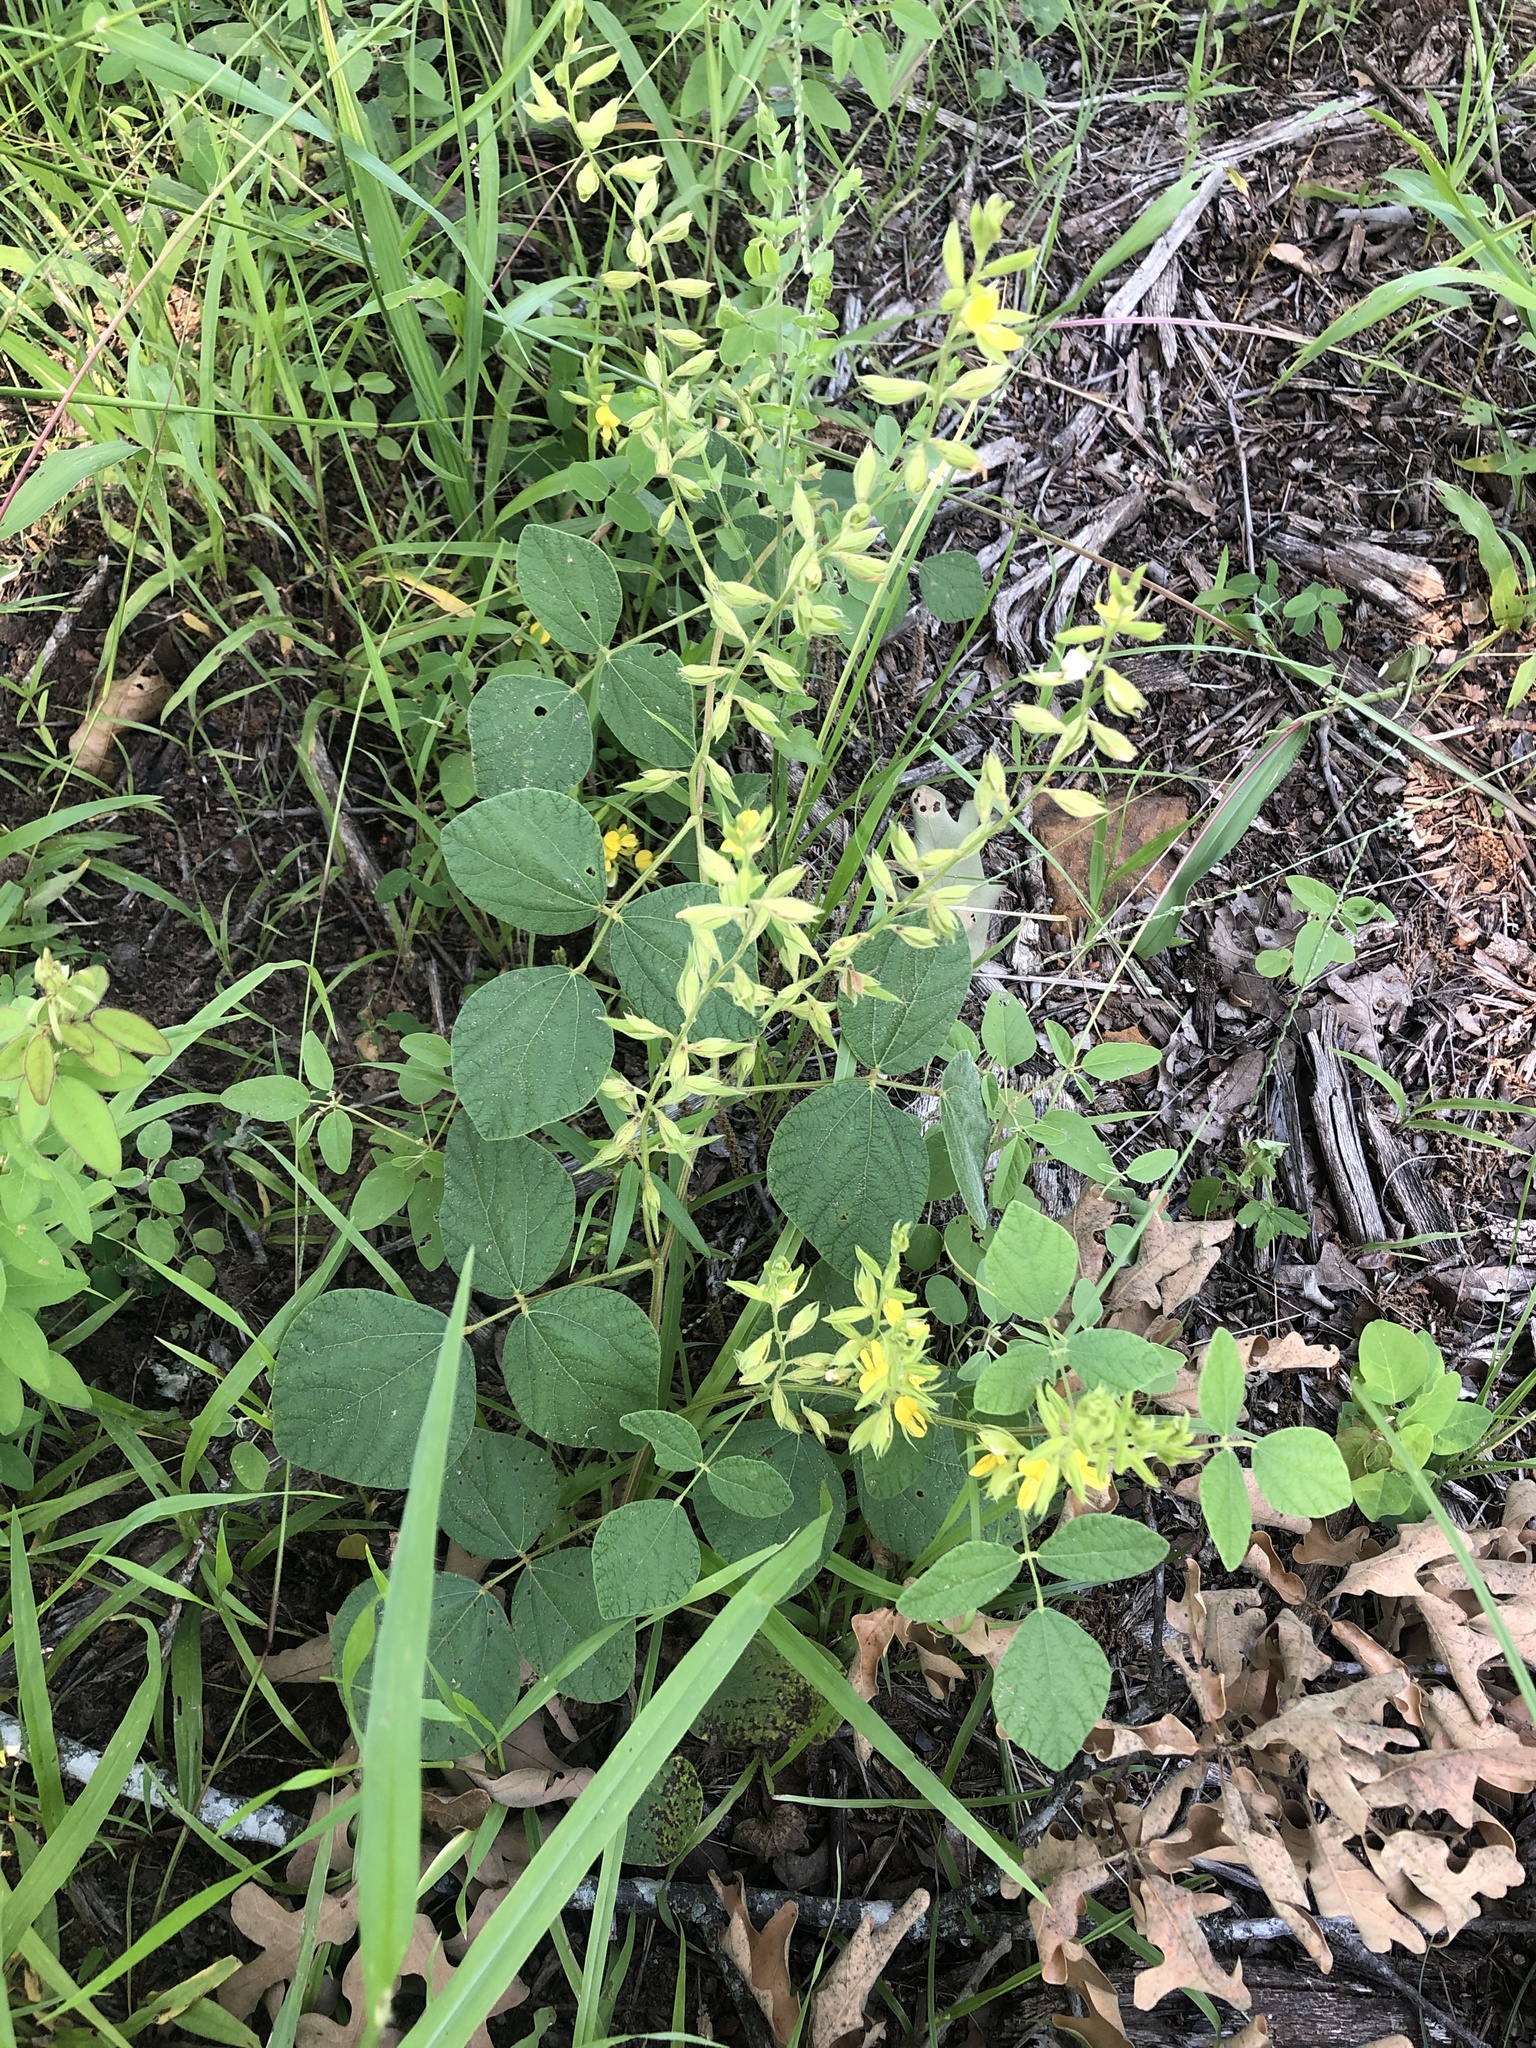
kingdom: Plantae
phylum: Tracheophyta
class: Magnoliopsida
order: Fabales
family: Fabaceae
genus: Rhynchosia
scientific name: Rhynchosia latifolia
